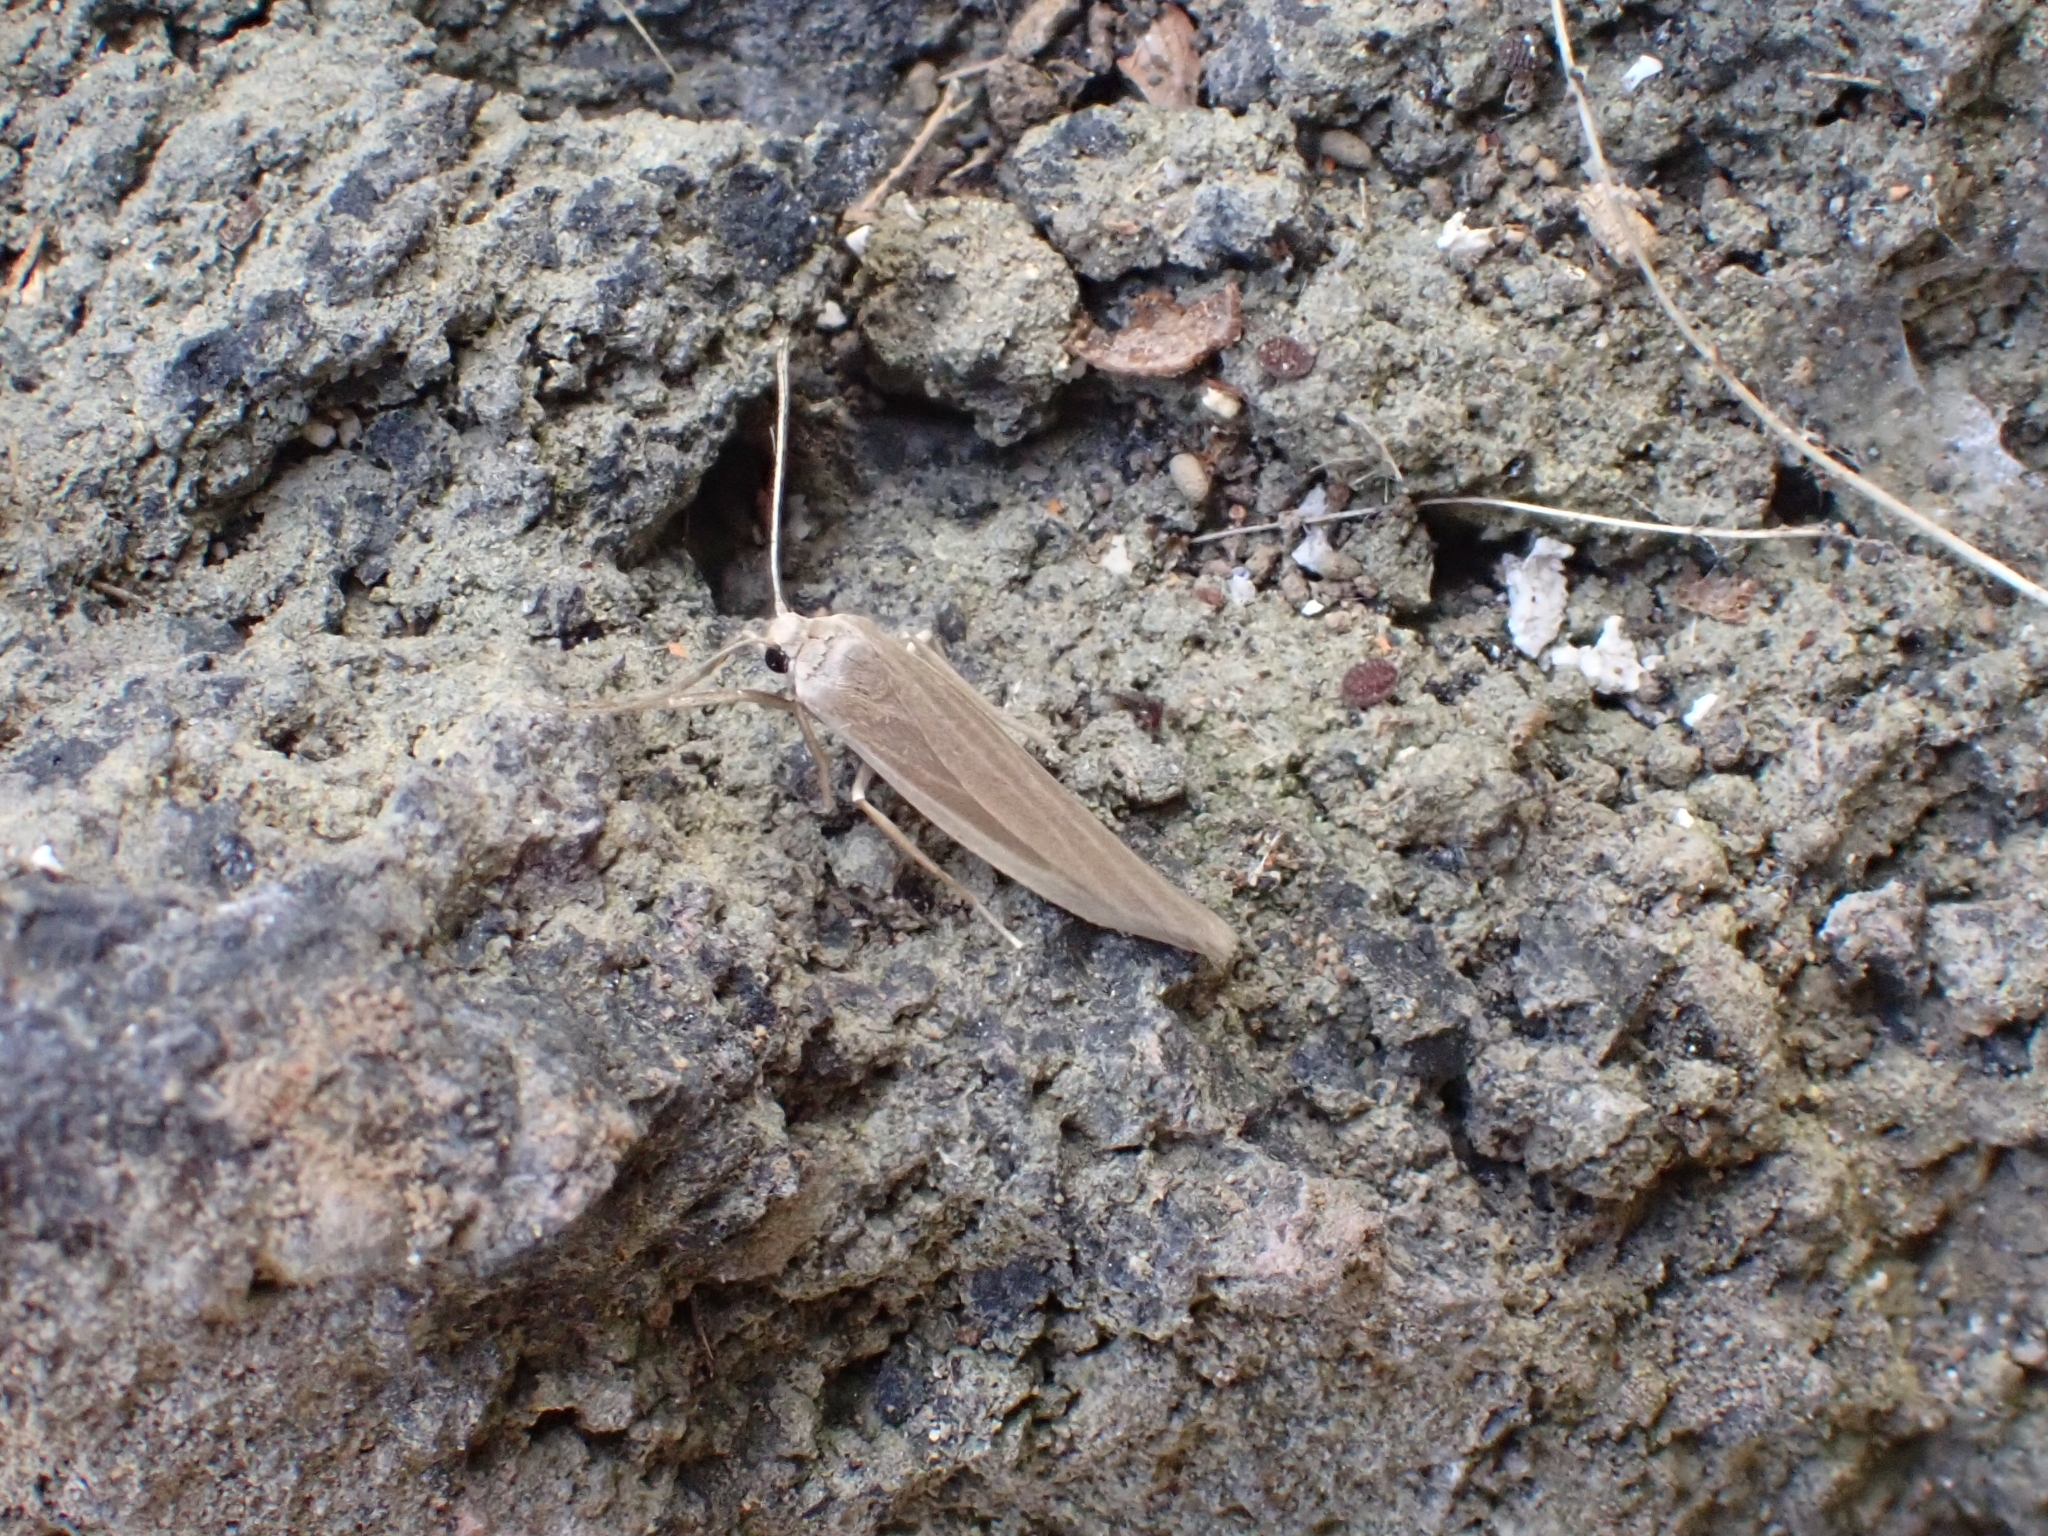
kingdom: Animalia
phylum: Arthropoda
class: Insecta
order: Lepidoptera
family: Erebidae
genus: Indalia
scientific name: Indalia albicosta
